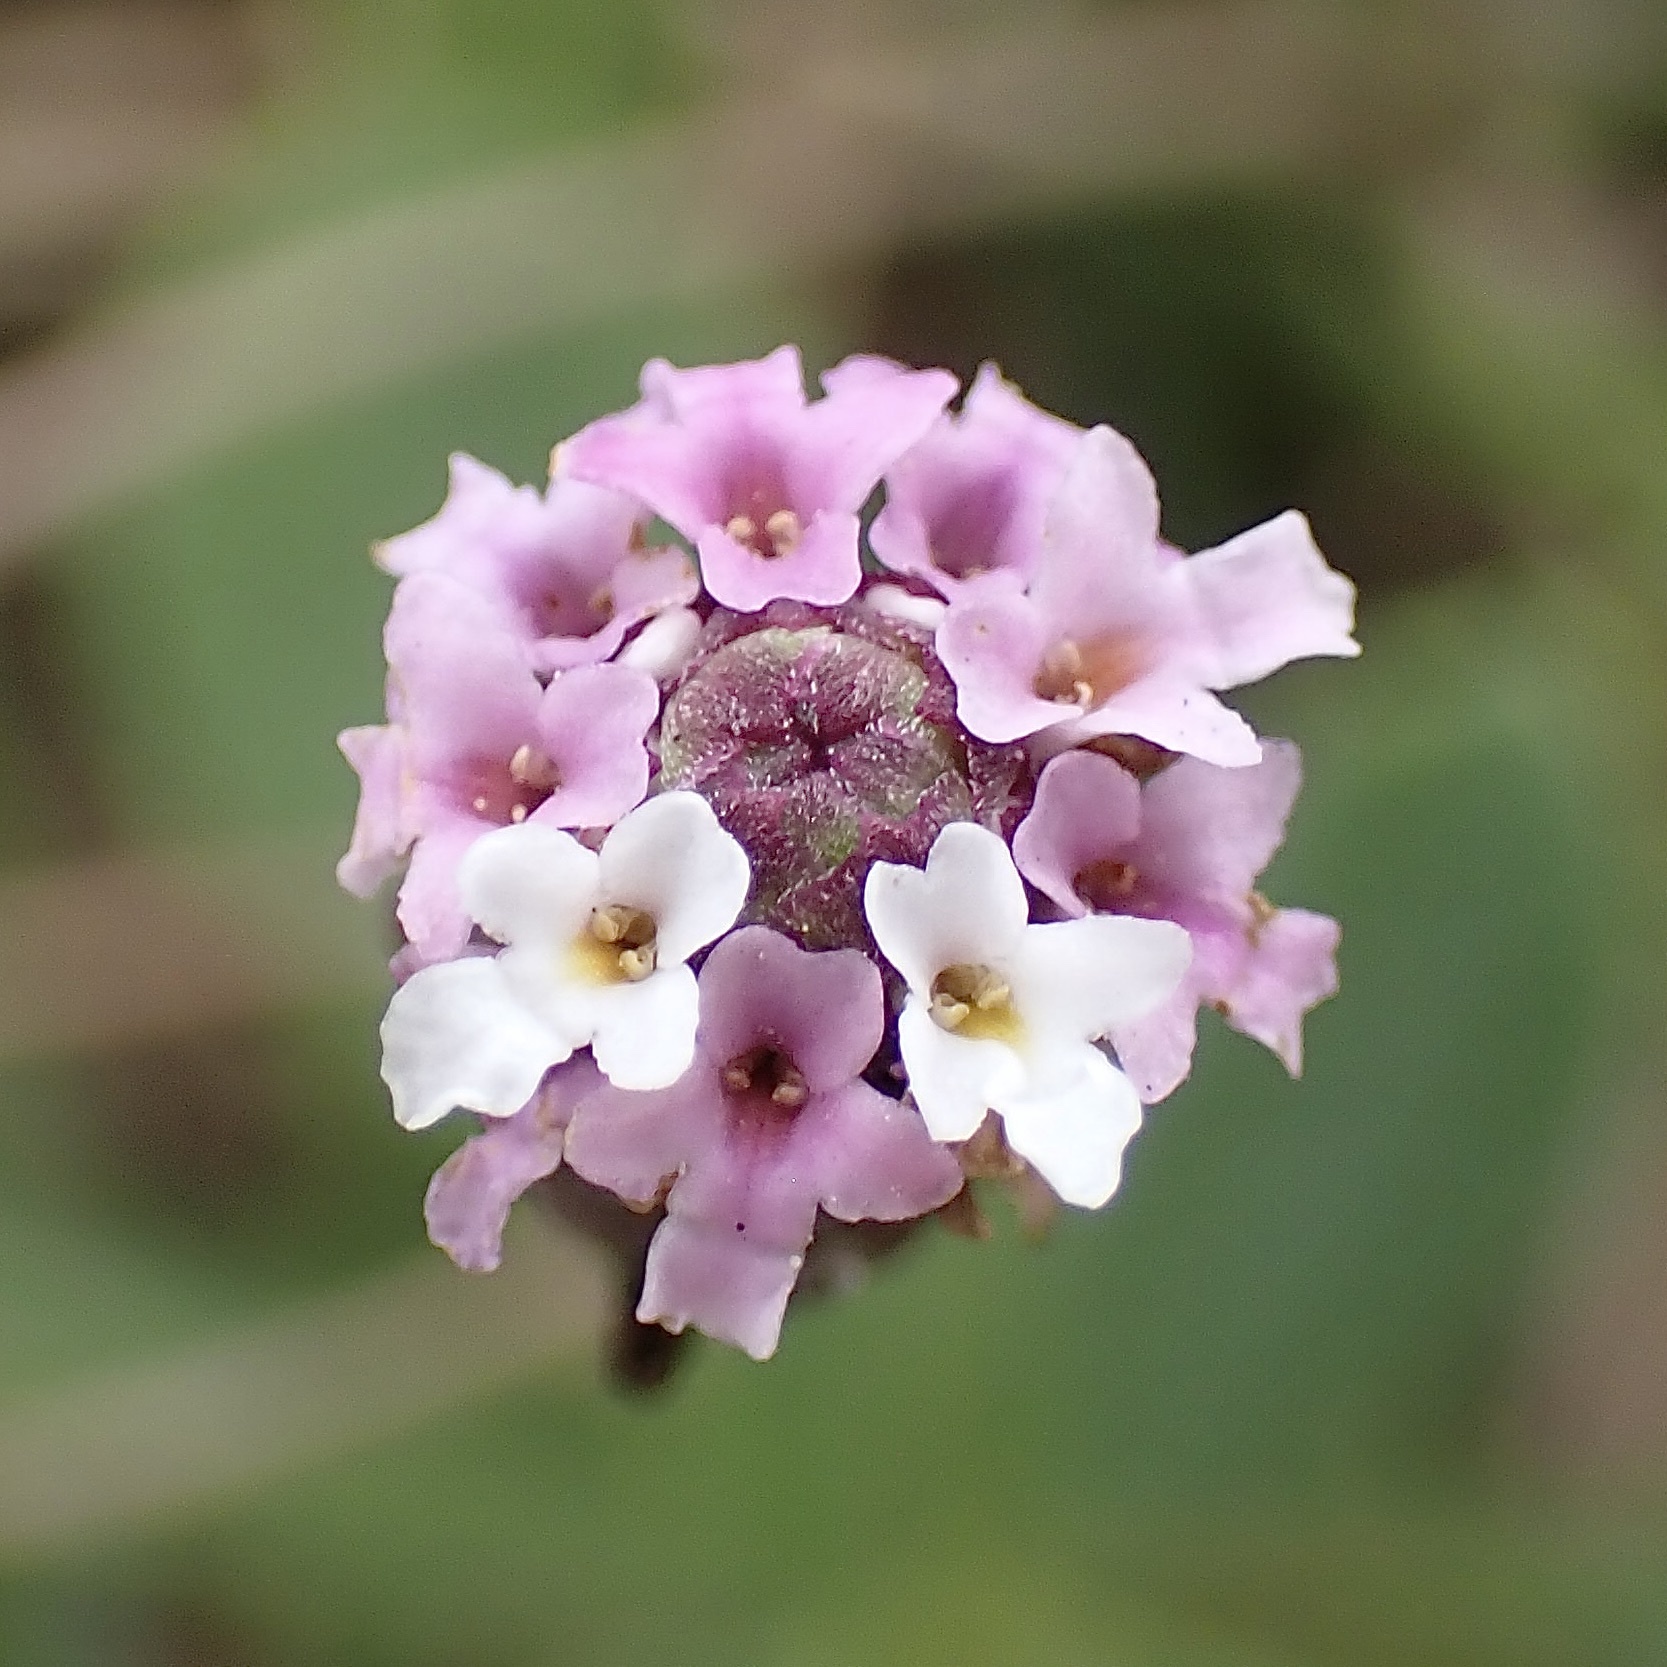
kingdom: Plantae
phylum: Tracheophyta
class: Magnoliopsida
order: Lamiales
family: Verbenaceae
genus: Phyla
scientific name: Phyla nodiflora
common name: Frogfruit
